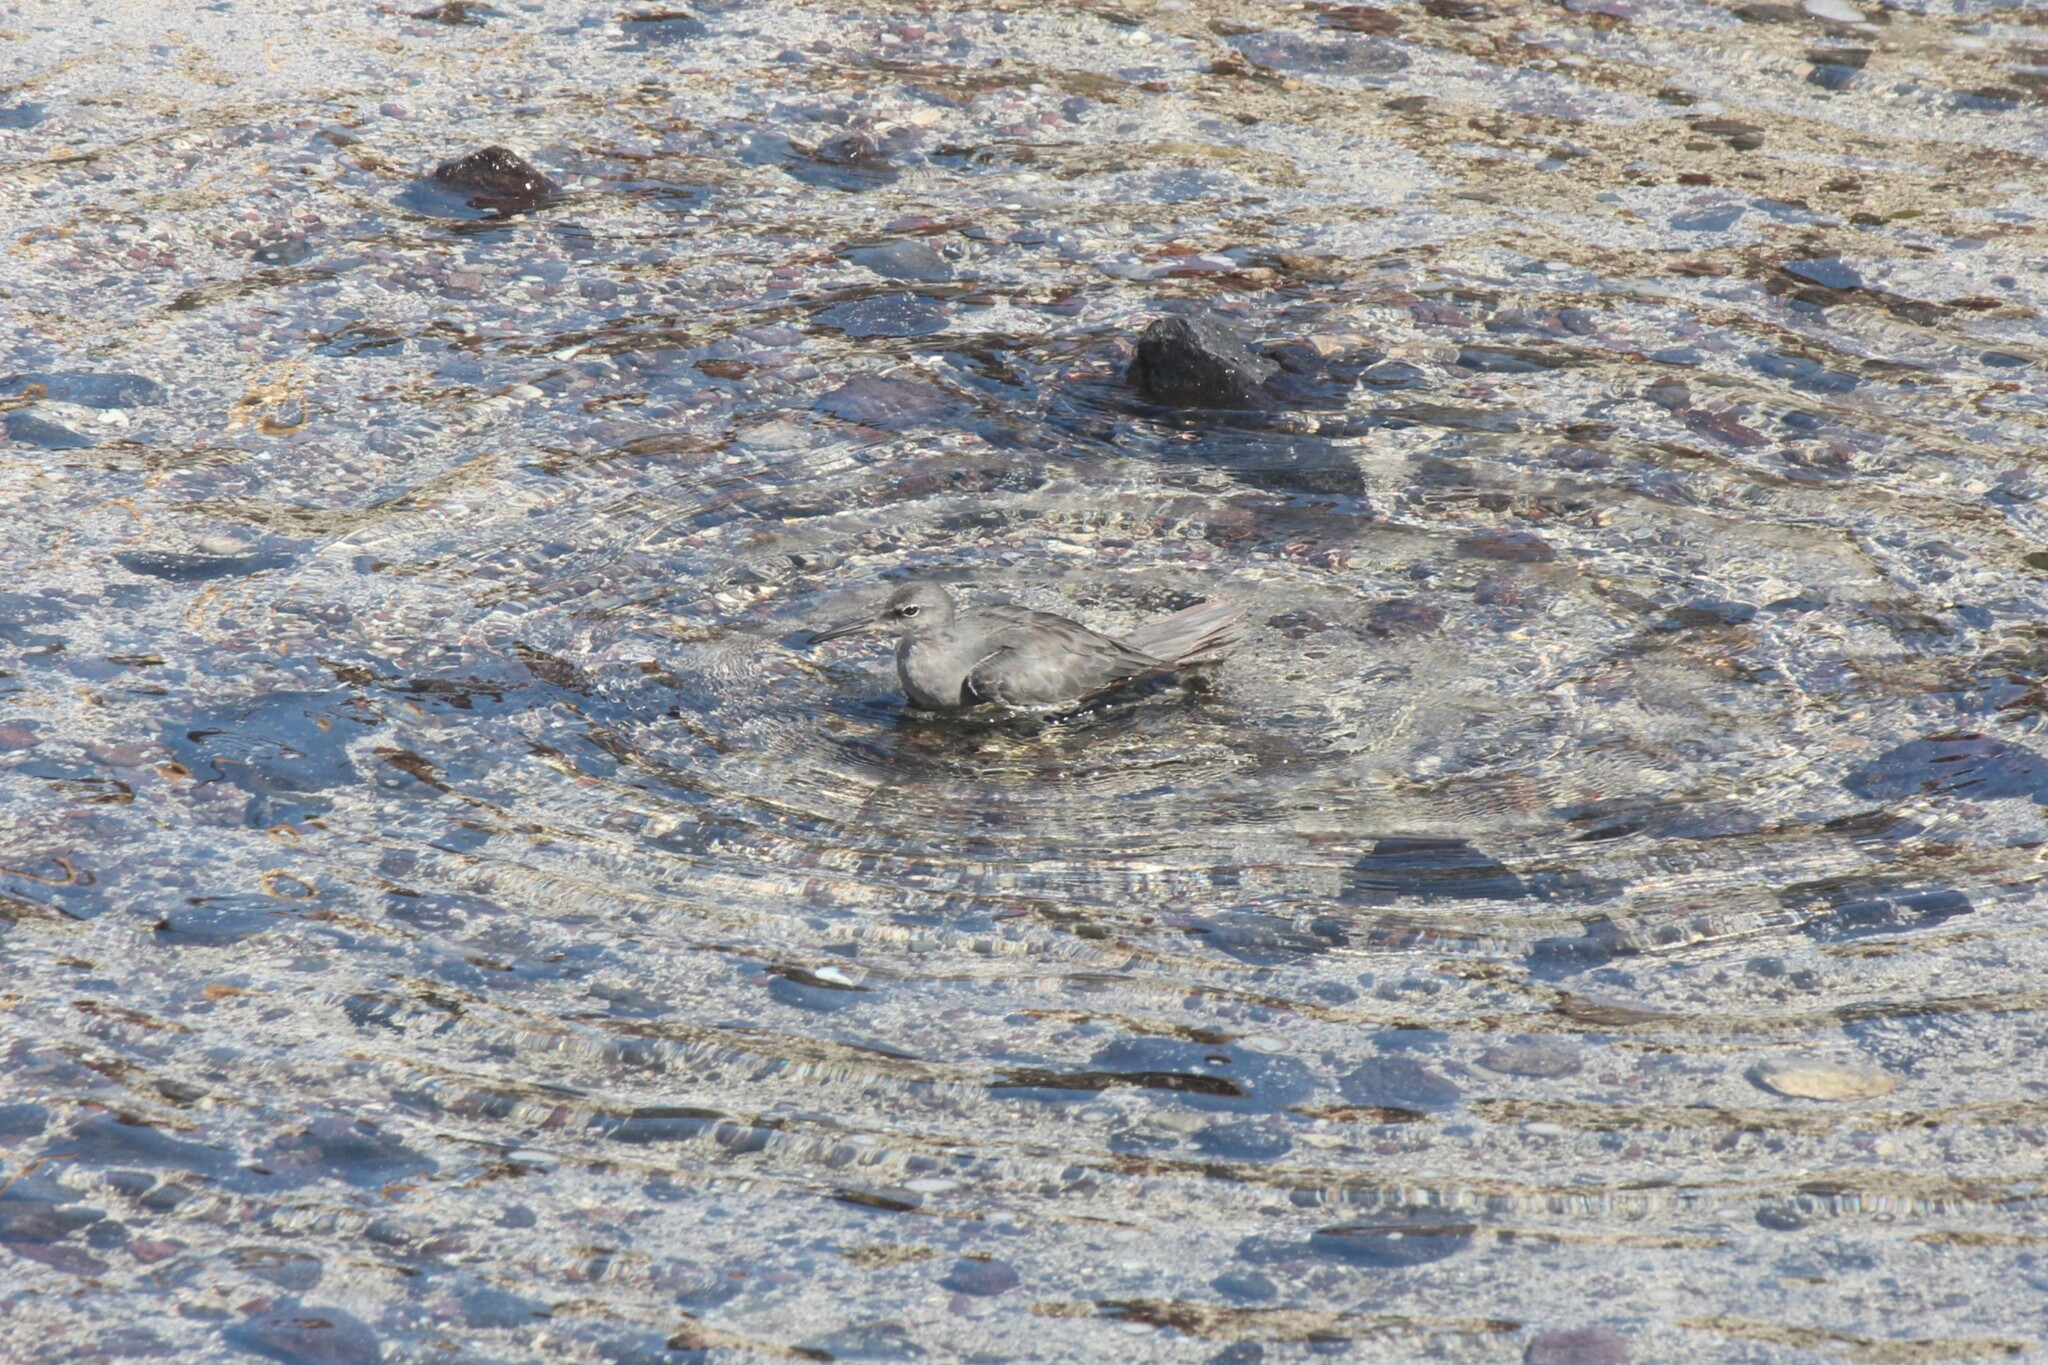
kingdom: Animalia
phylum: Chordata
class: Aves
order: Charadriiformes
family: Scolopacidae
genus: Tringa
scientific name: Tringa incana
